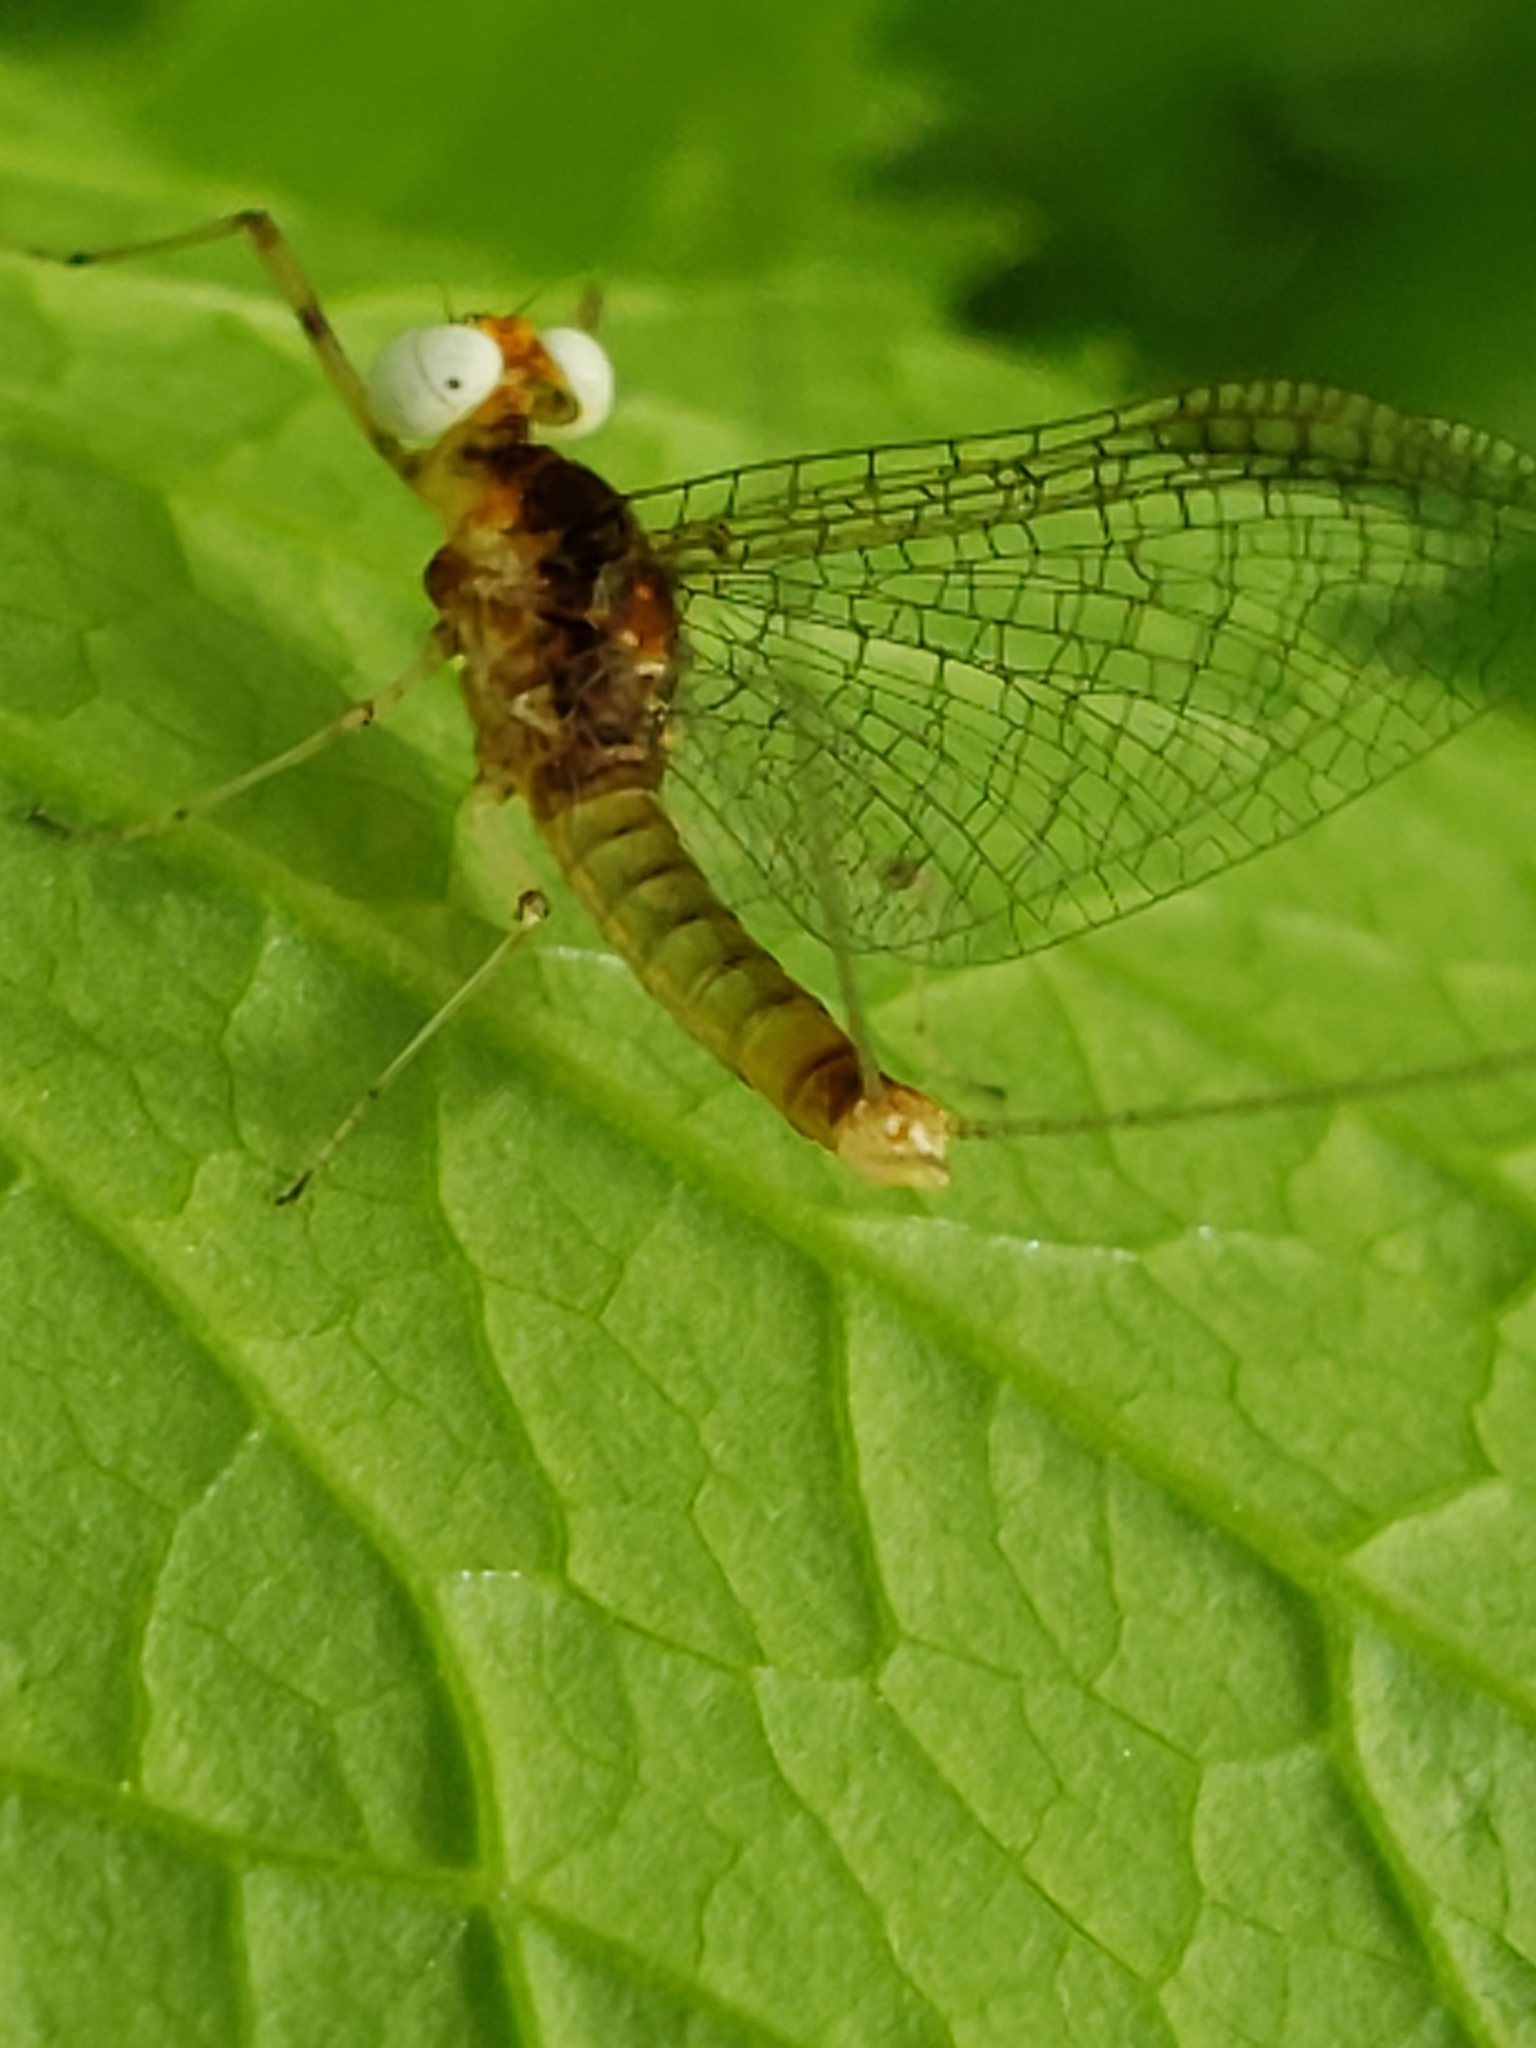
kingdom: Animalia
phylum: Arthropoda
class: Insecta
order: Ephemeroptera
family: Heptageniidae
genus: Maccaffertium
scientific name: Maccaffertium terminatum
